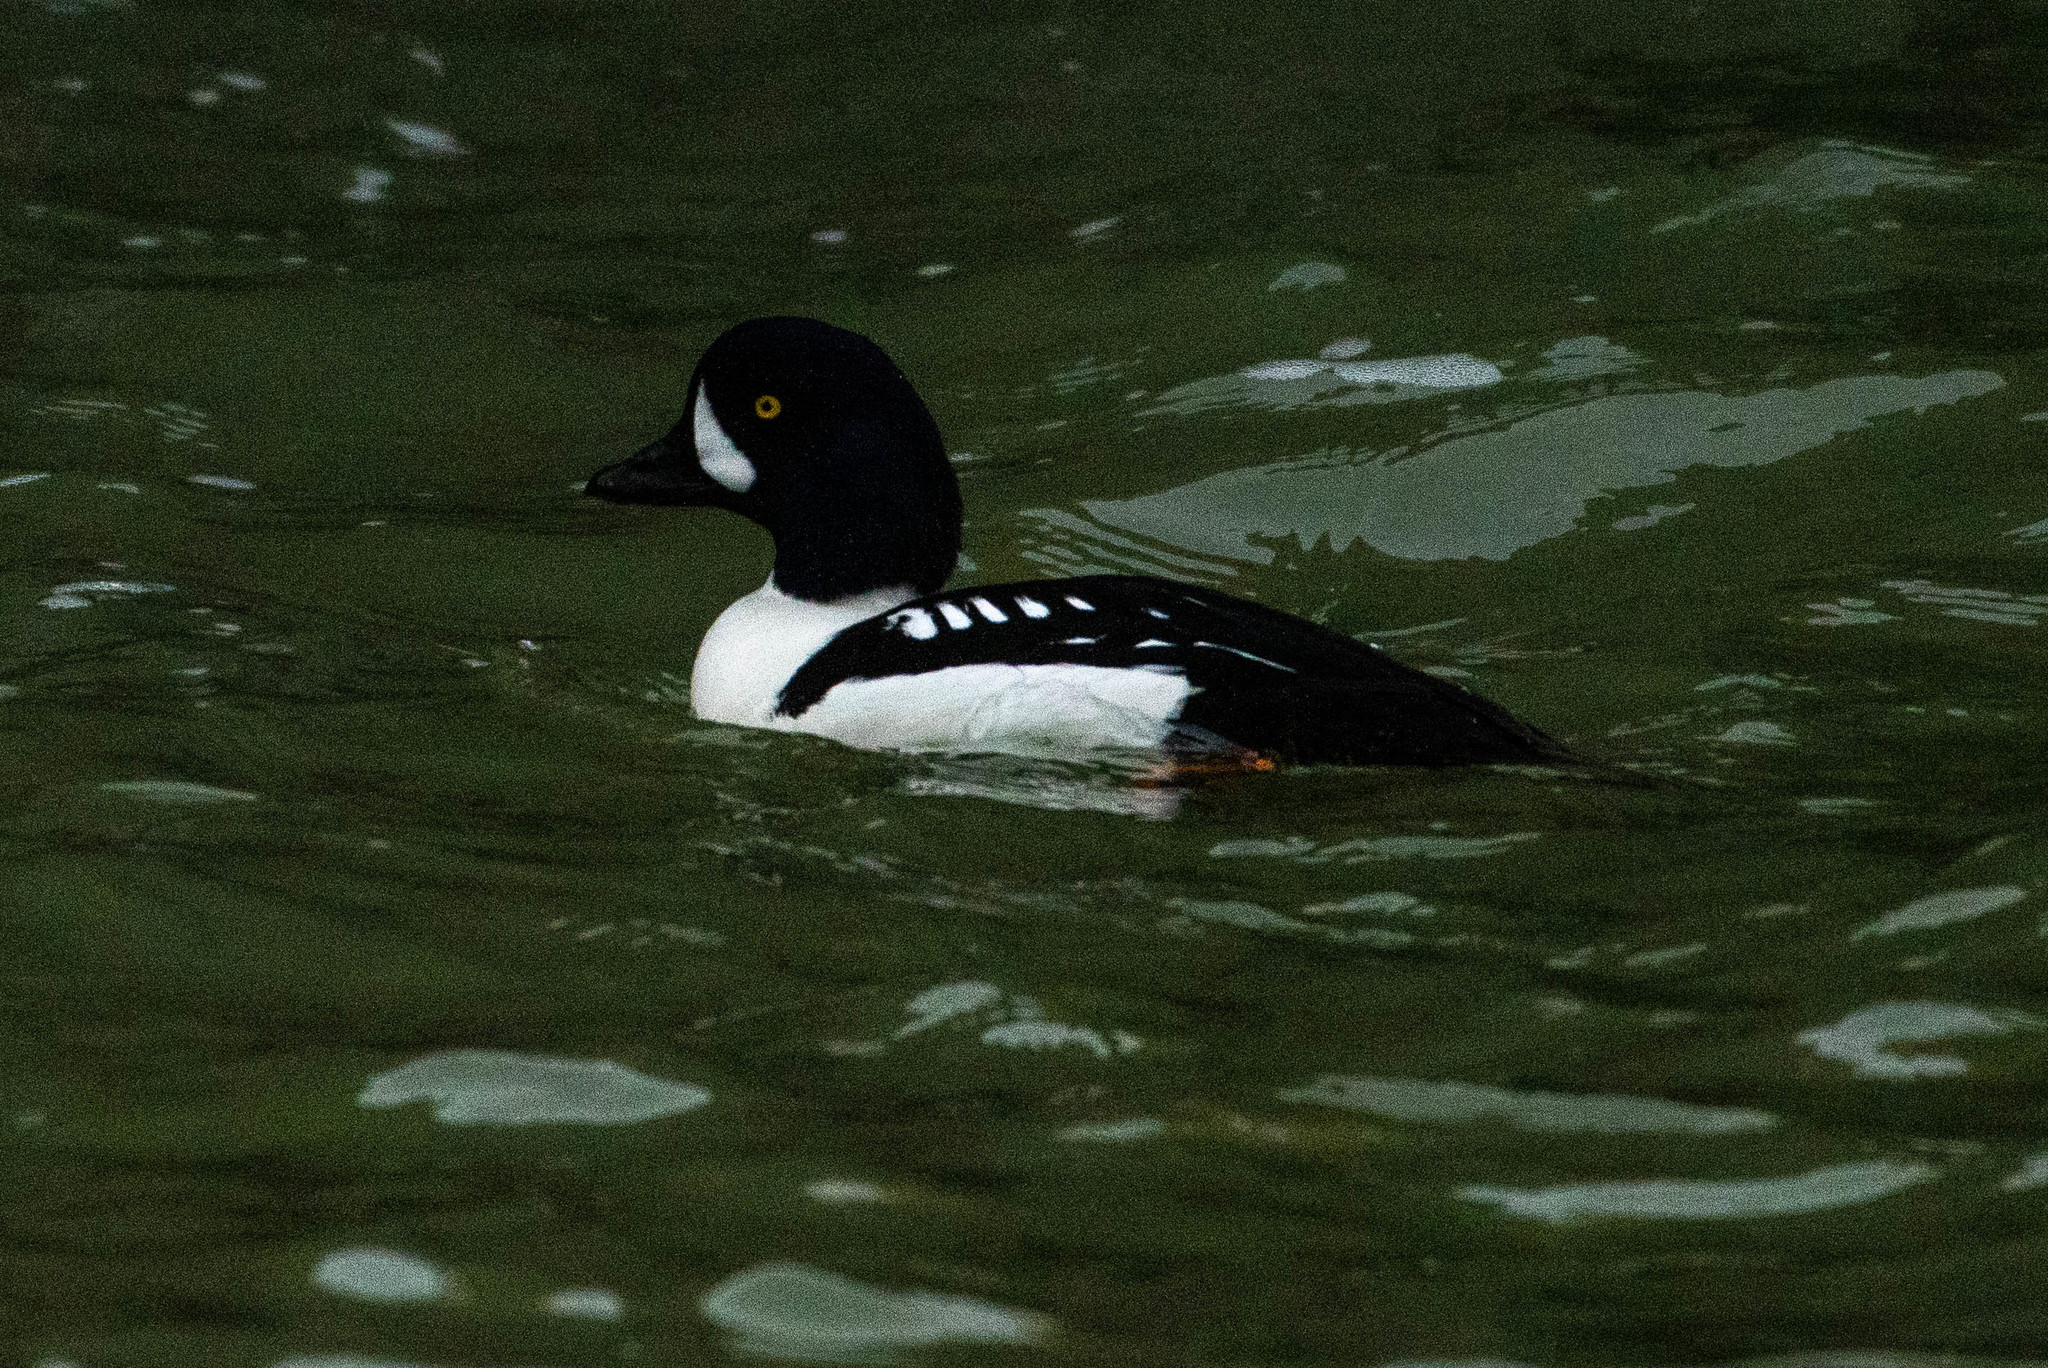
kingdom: Animalia
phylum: Chordata
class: Aves
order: Anseriformes
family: Anatidae
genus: Bucephala
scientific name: Bucephala islandica
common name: Barrow's goldeneye
